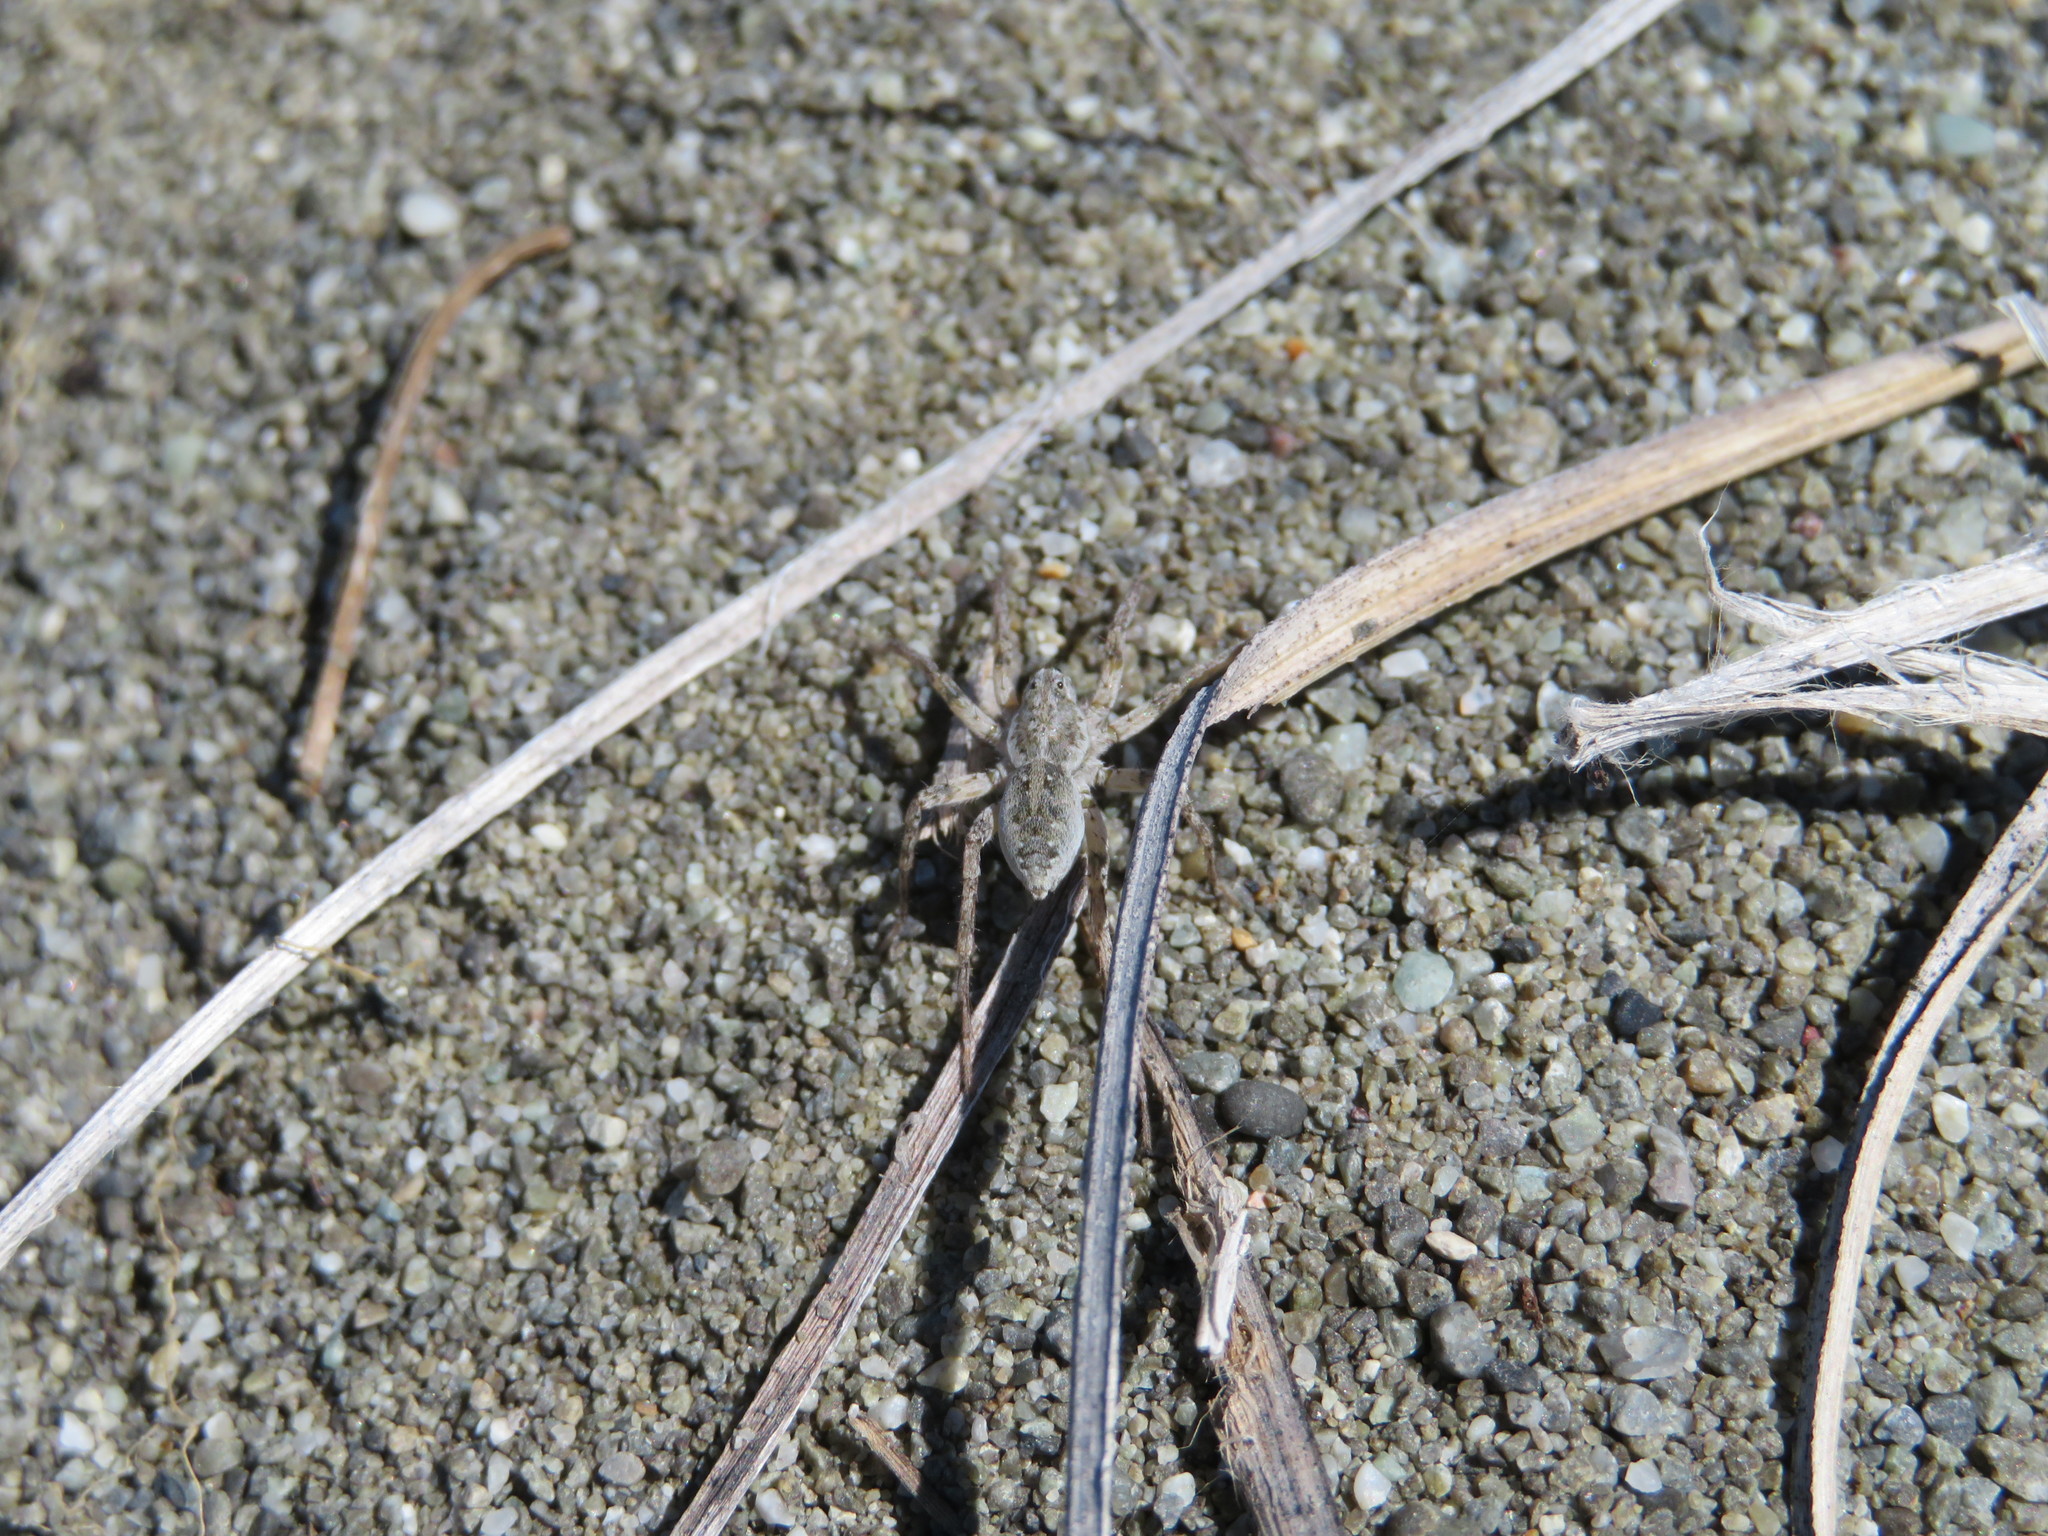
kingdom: Animalia
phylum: Arthropoda
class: Arachnida
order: Araneae
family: Lycosidae
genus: Anoteropsis
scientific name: Anoteropsis litoralis
